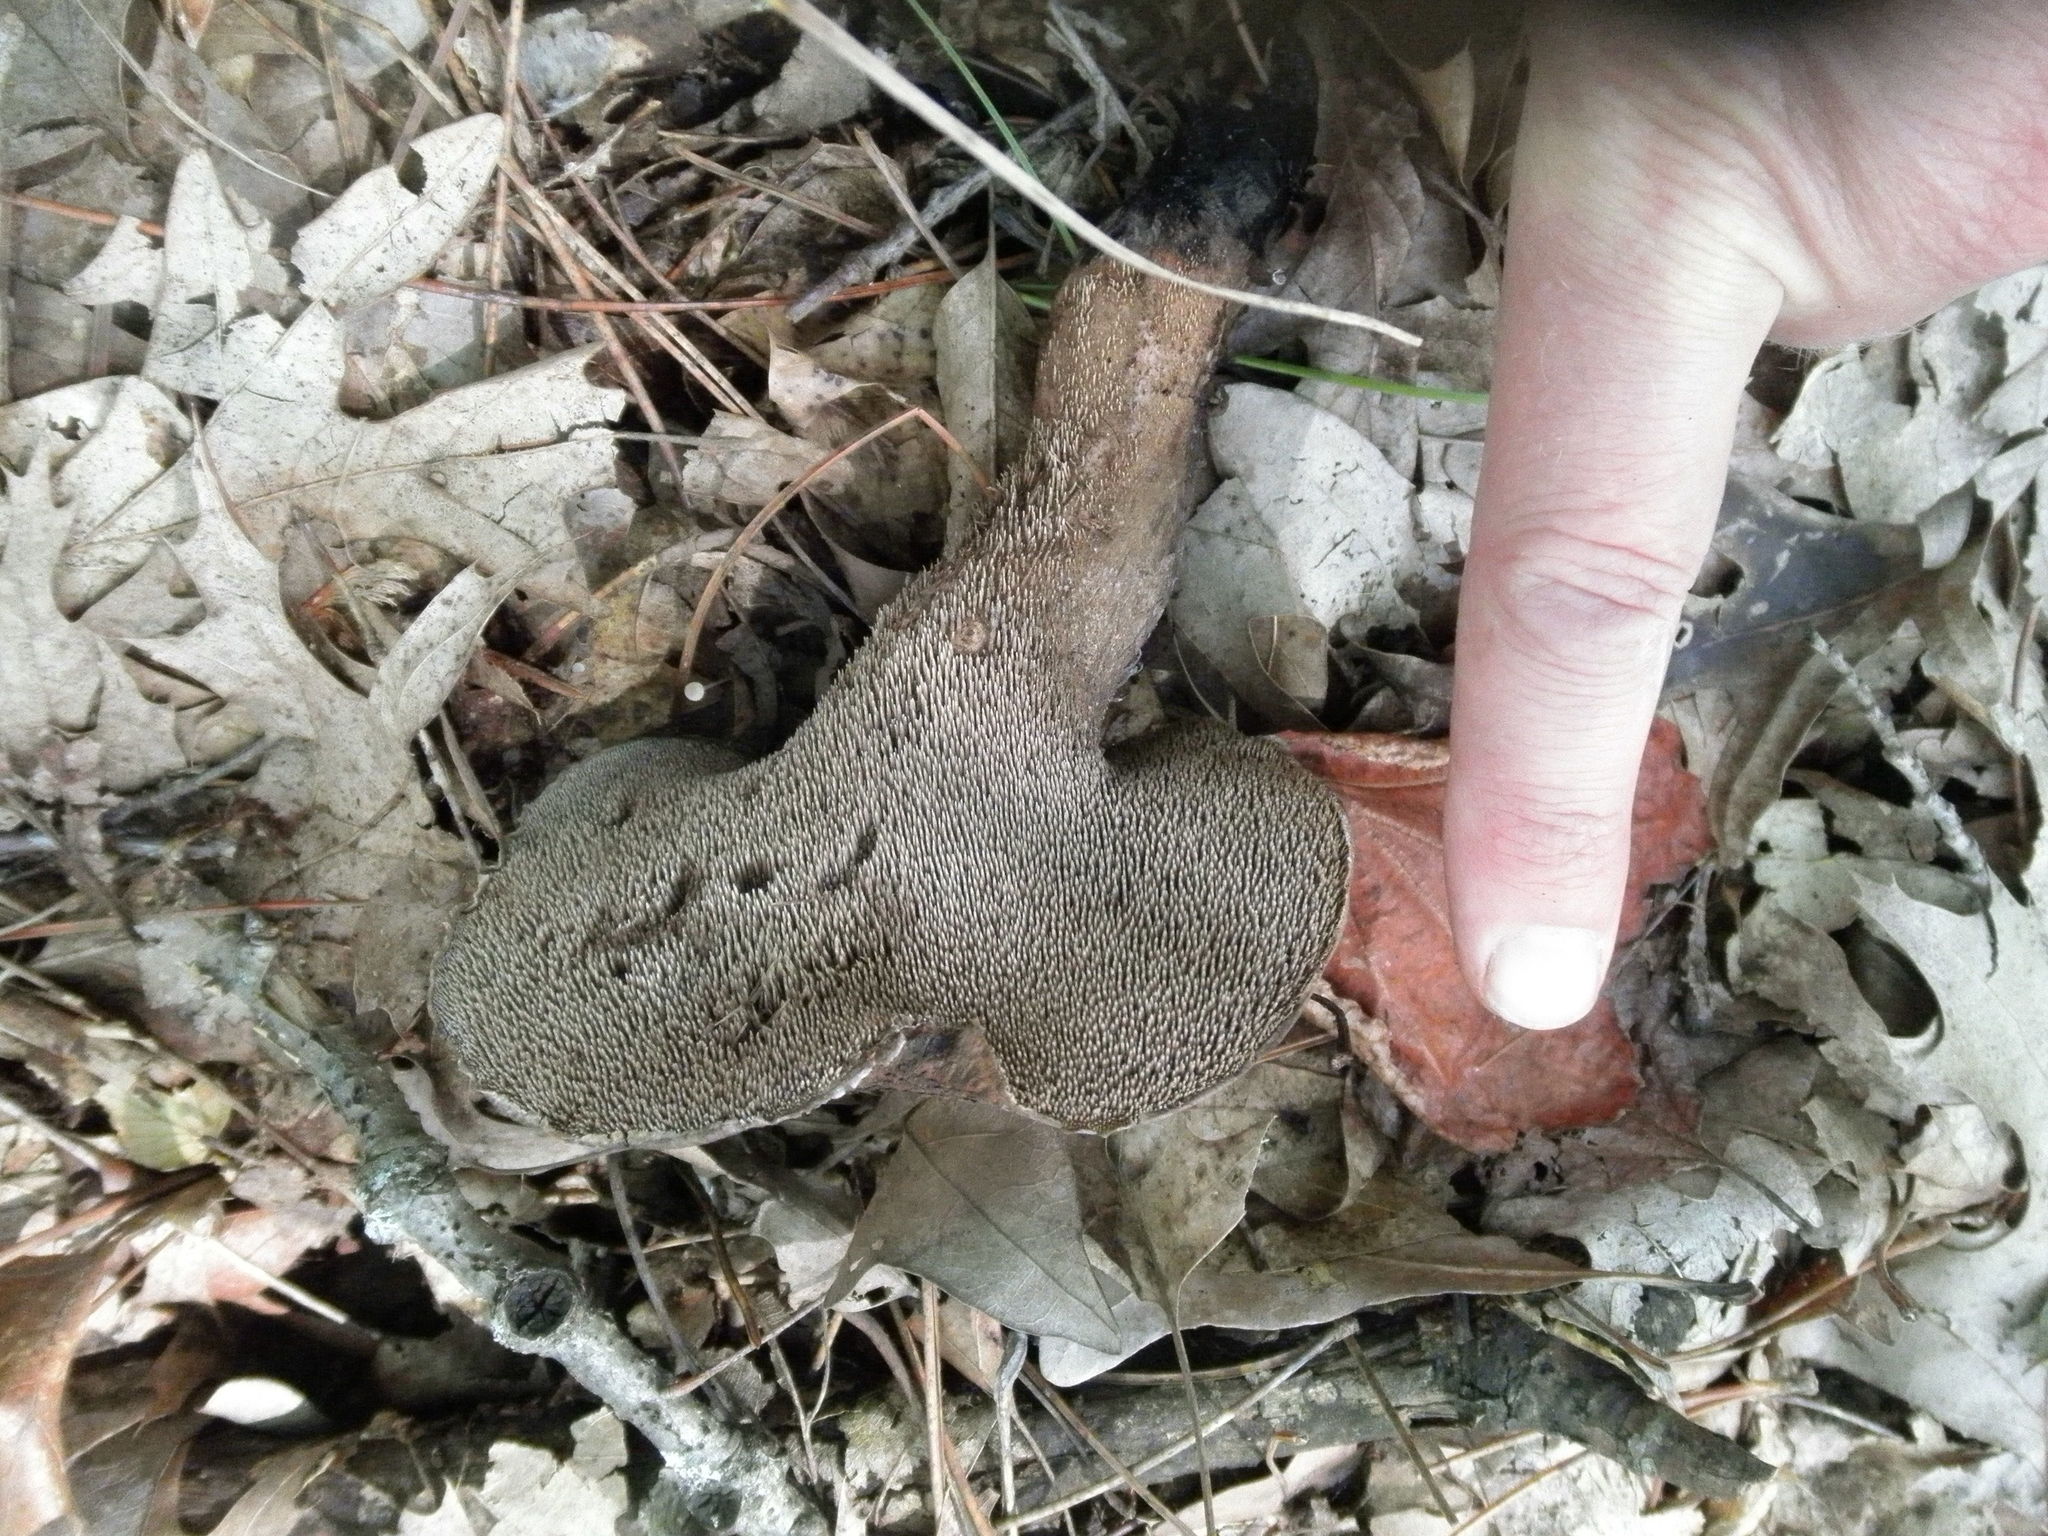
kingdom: Fungi
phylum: Basidiomycota
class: Agaricomycetes
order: Thelephorales
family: Bankeraceae
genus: Hydnellum
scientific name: Hydnellum underwoodii
